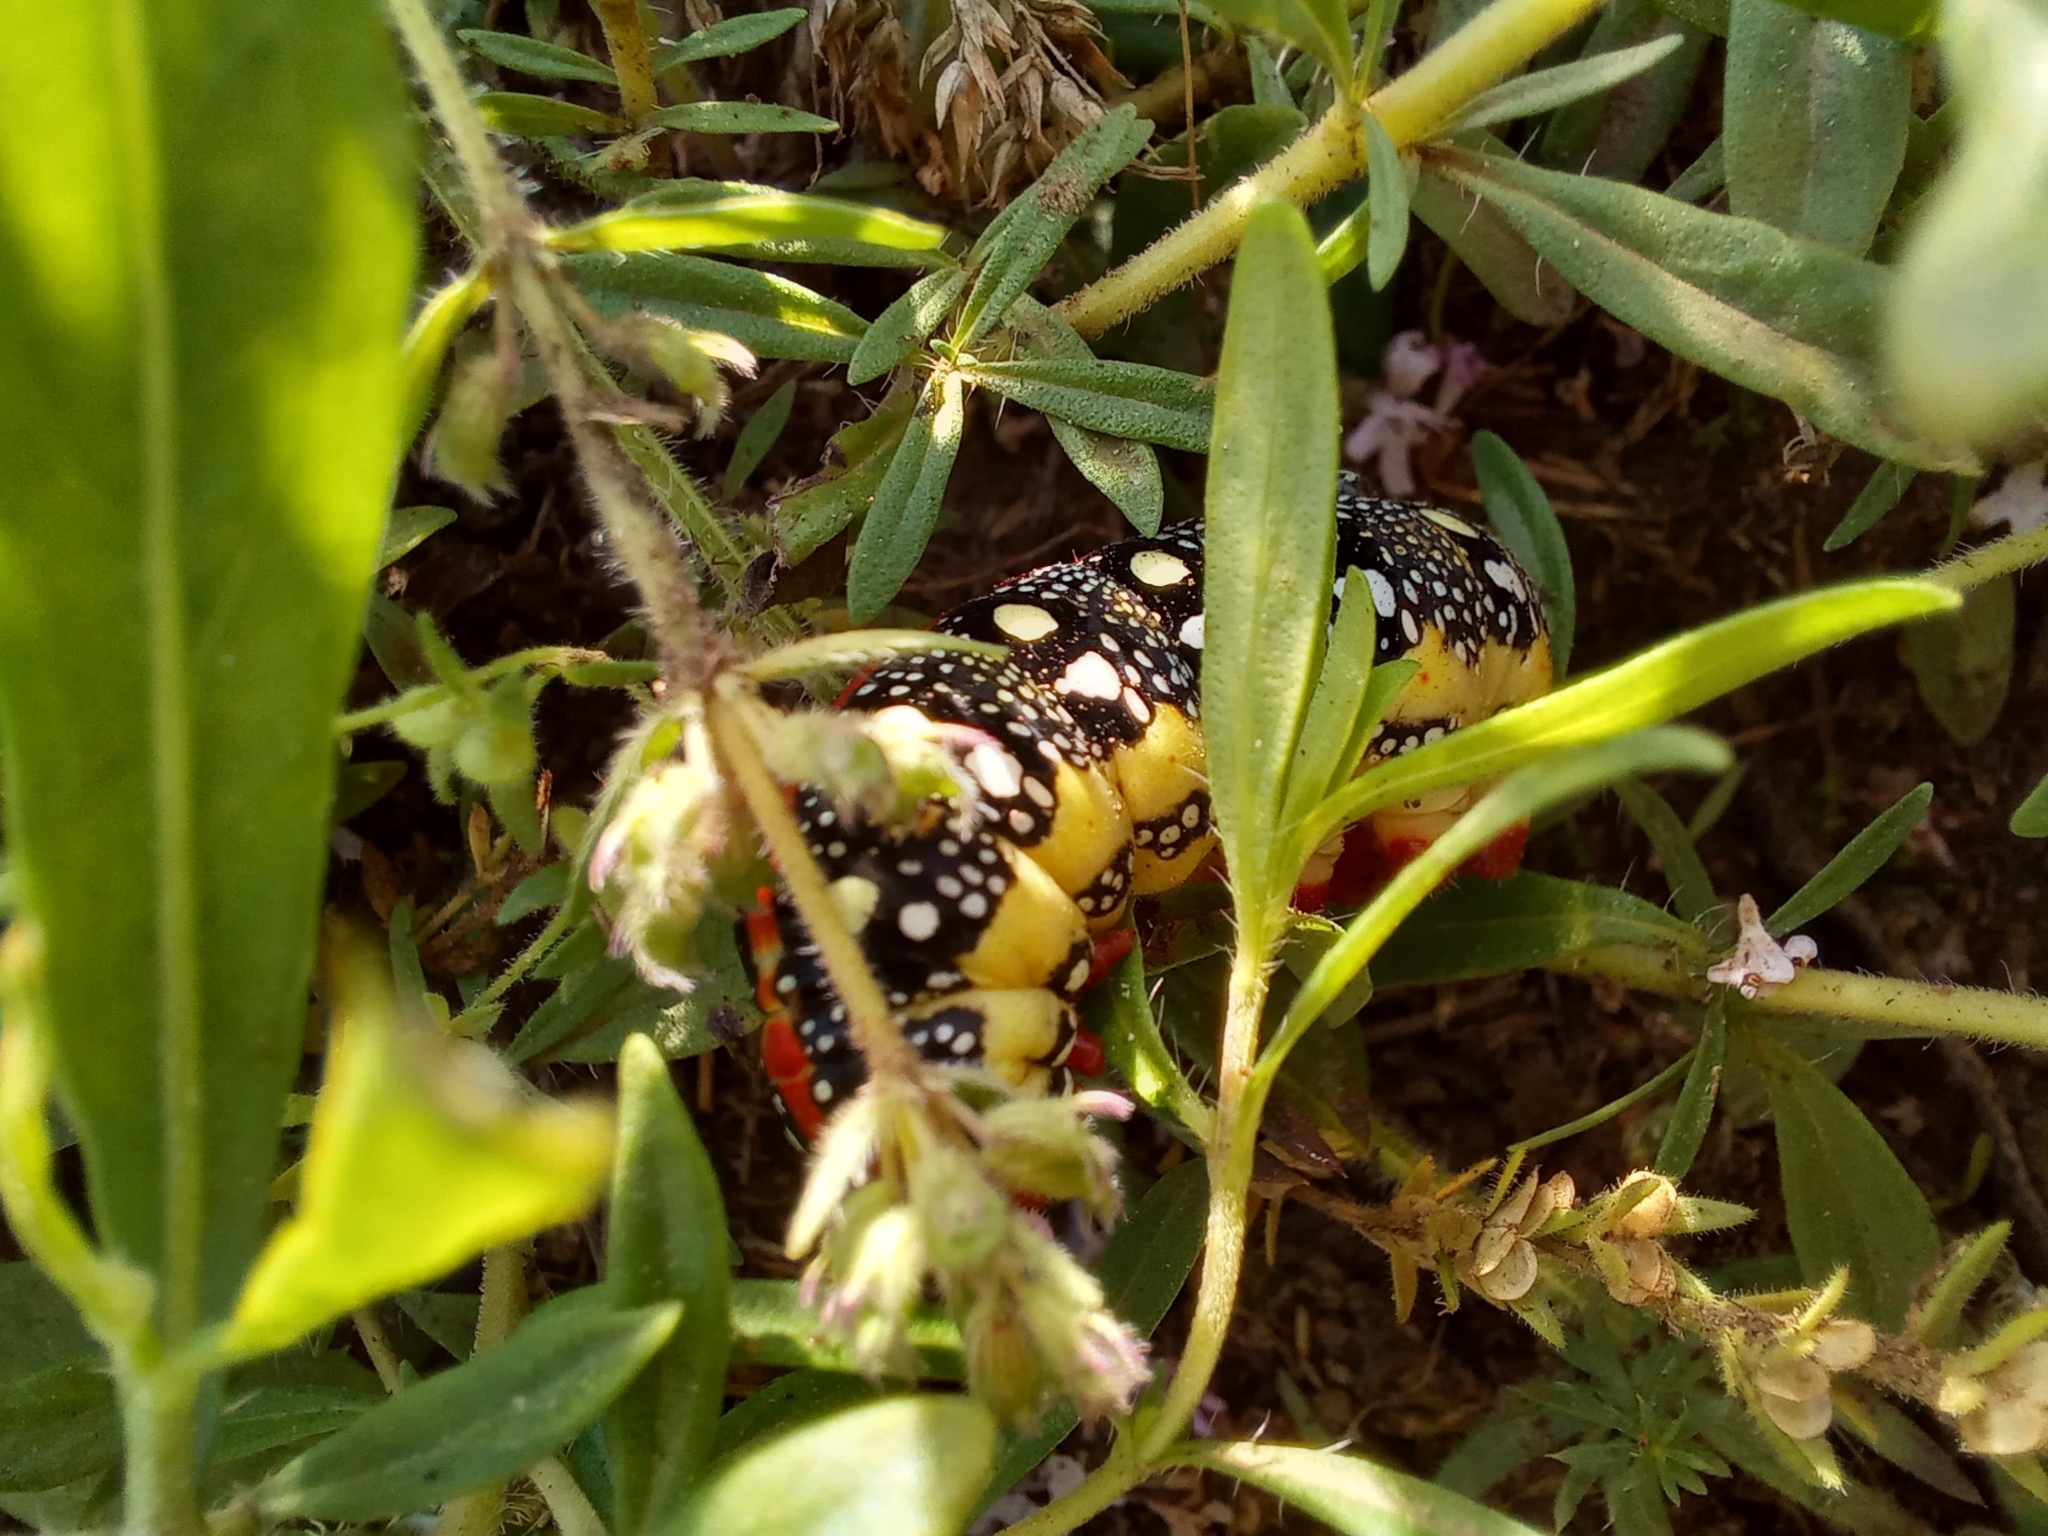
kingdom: Animalia
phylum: Arthropoda
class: Insecta
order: Lepidoptera
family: Sphingidae
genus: Hyles
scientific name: Hyles euphorbiae
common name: Spurge hawk-moth
